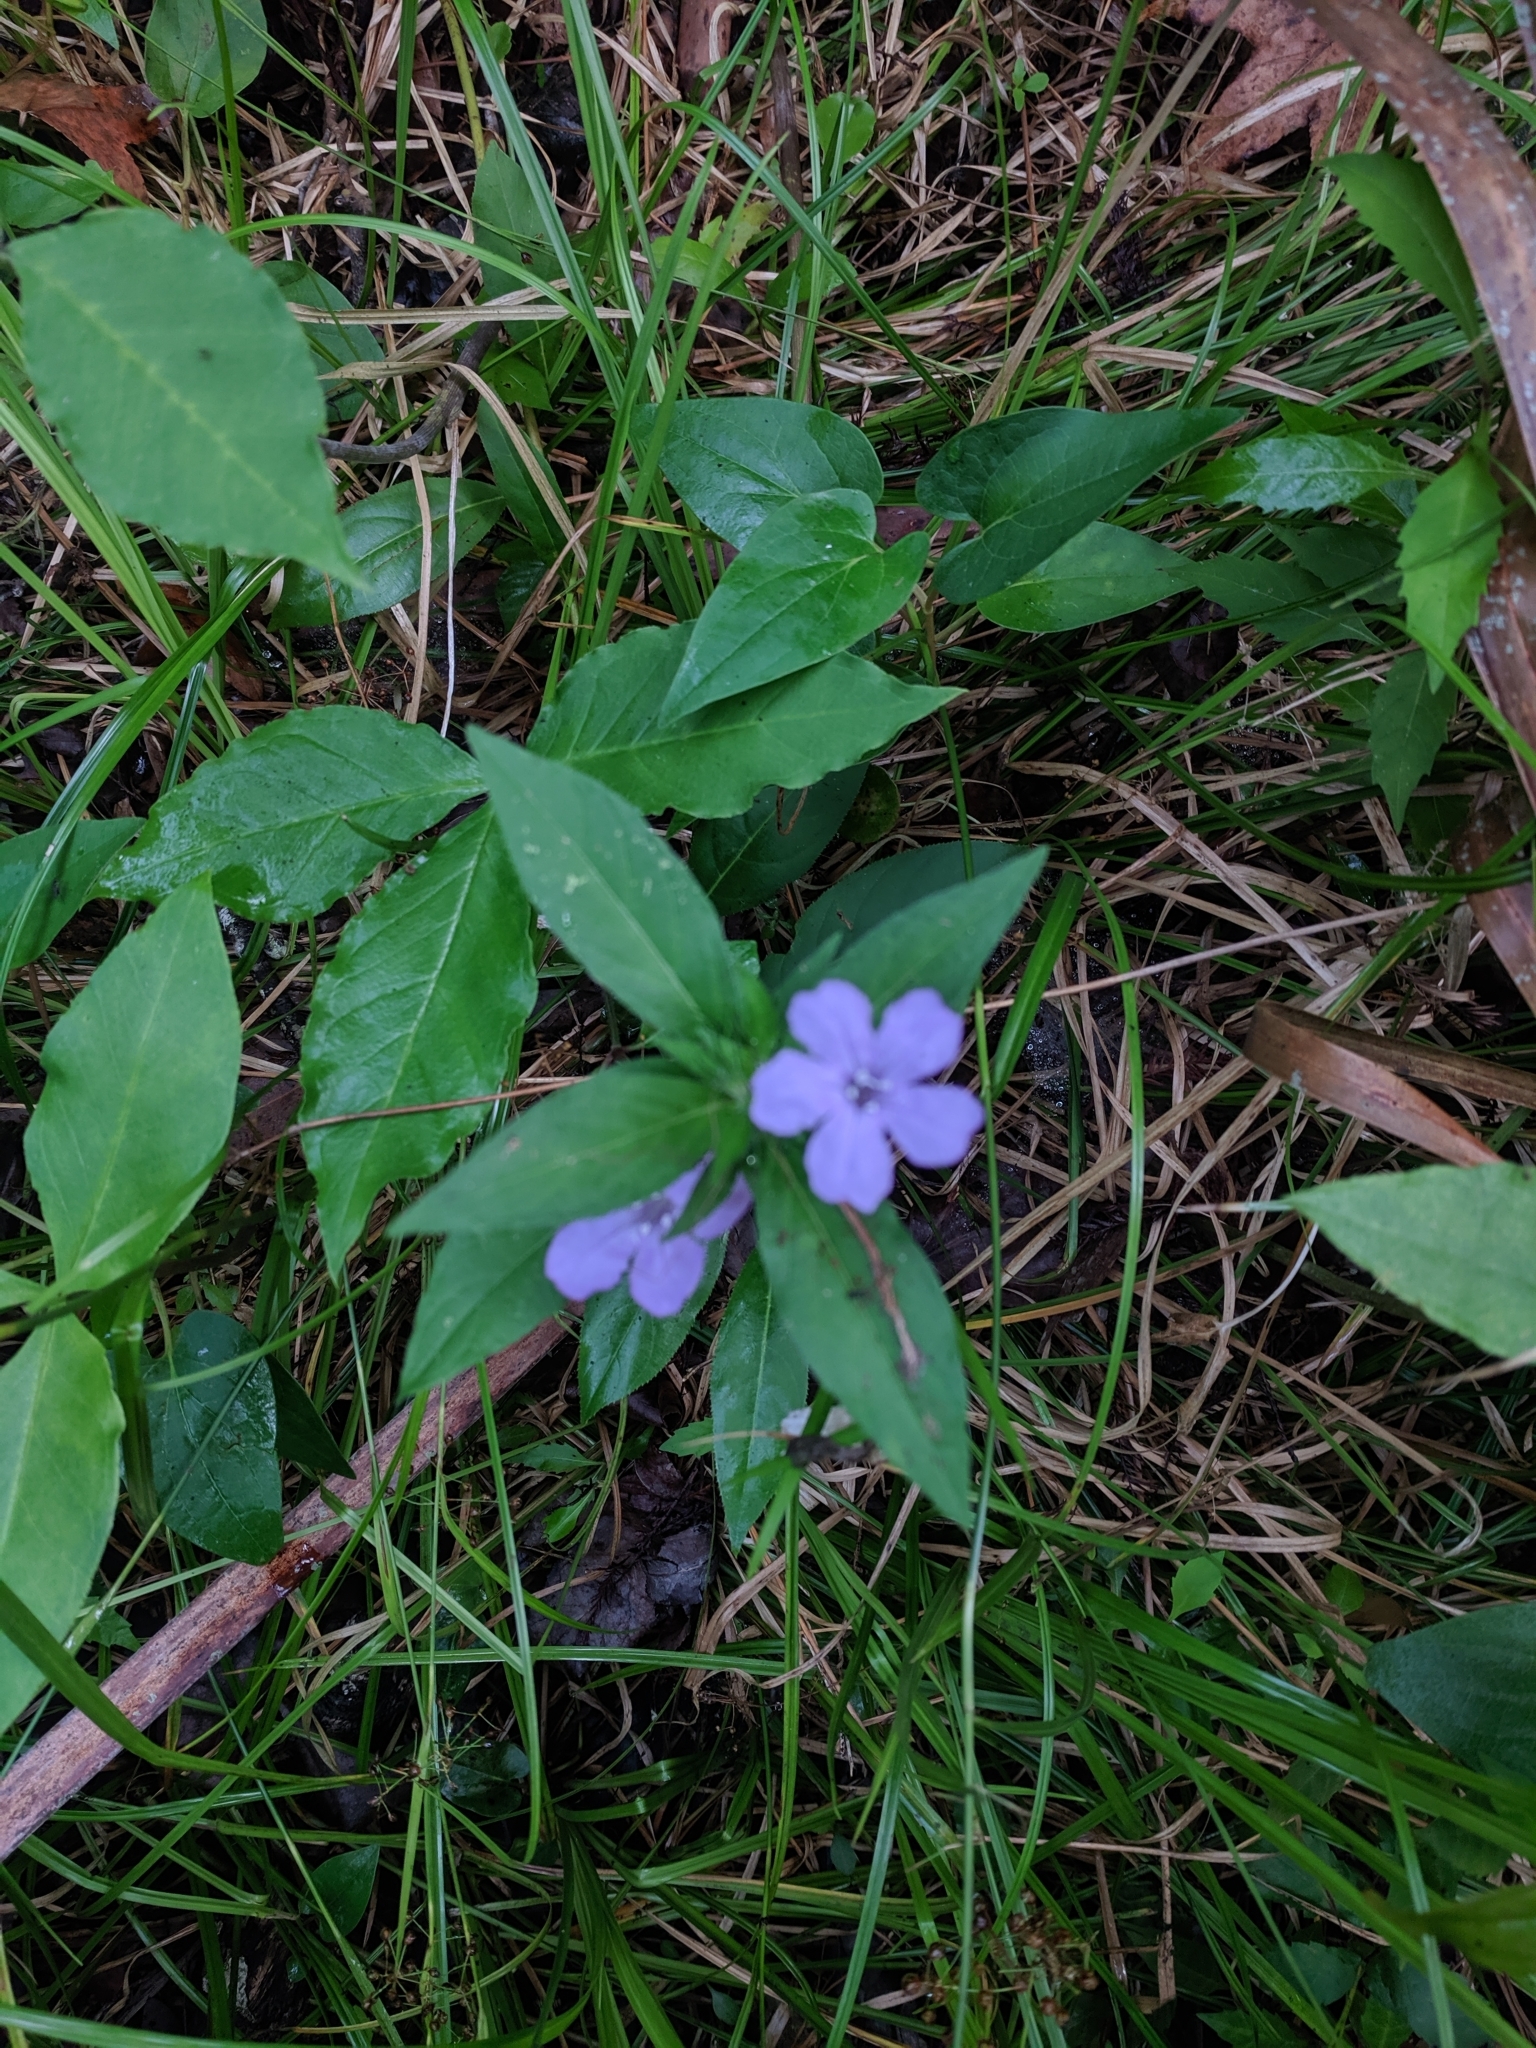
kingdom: Plantae
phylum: Tracheophyta
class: Magnoliopsida
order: Lamiales
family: Acanthaceae
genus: Ruellia
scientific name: Ruellia caroliniensis
